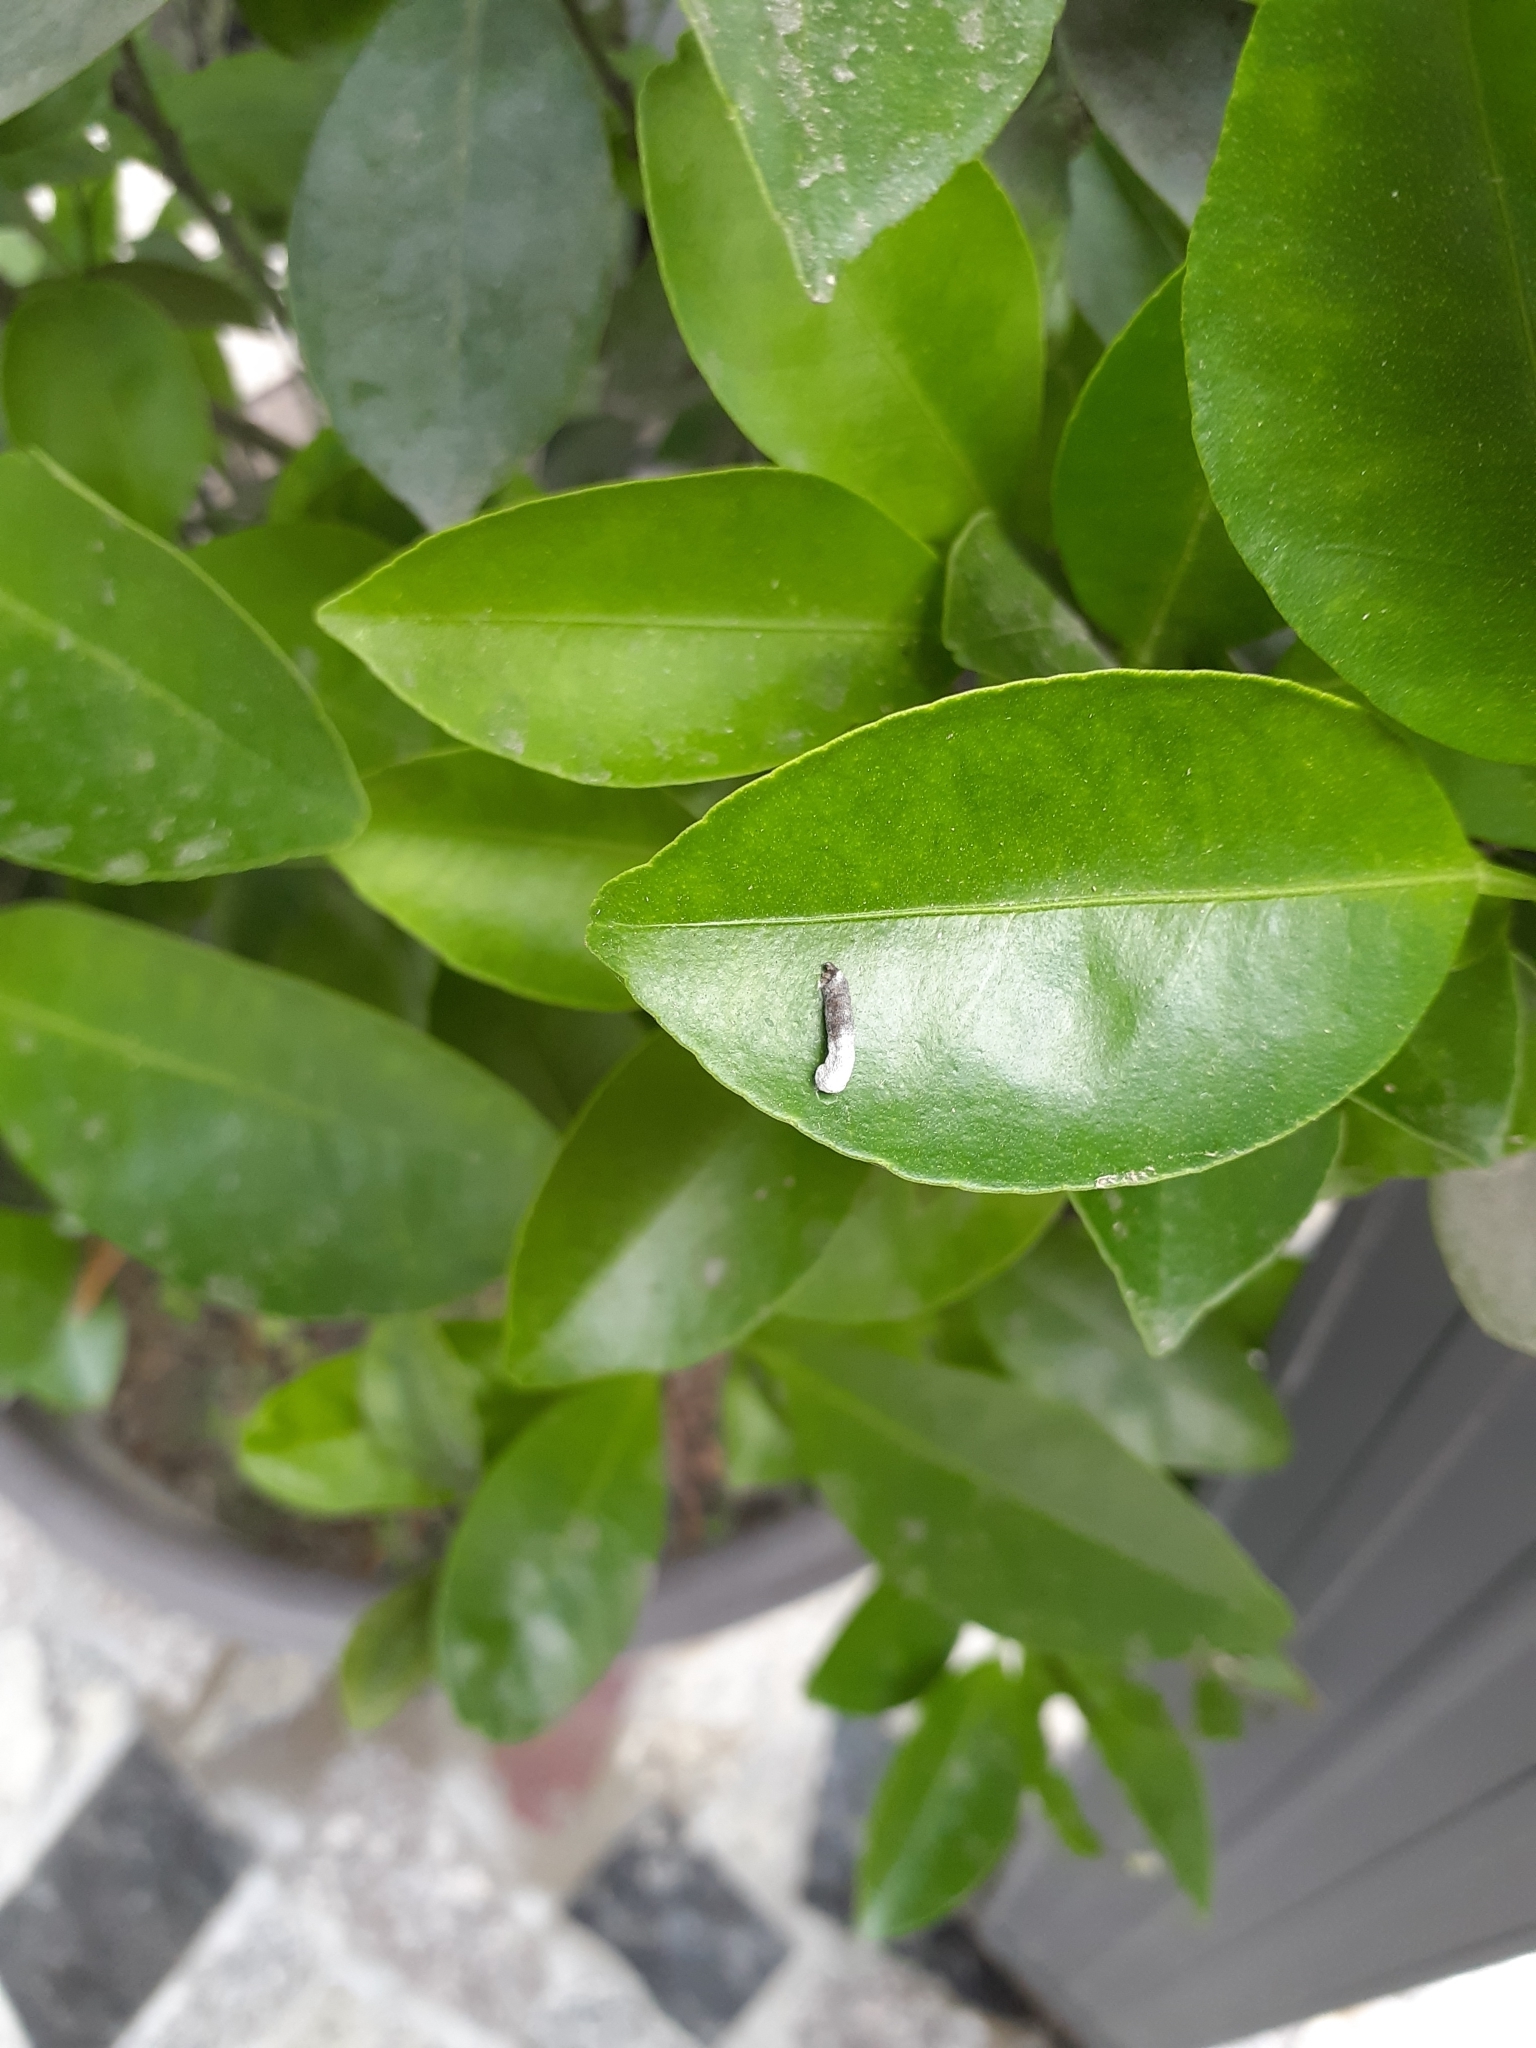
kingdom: Animalia
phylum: Arthropoda
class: Insecta
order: Lepidoptera
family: Papilionidae
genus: Papilio
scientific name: Papilio demoleus
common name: Lime butterfly
